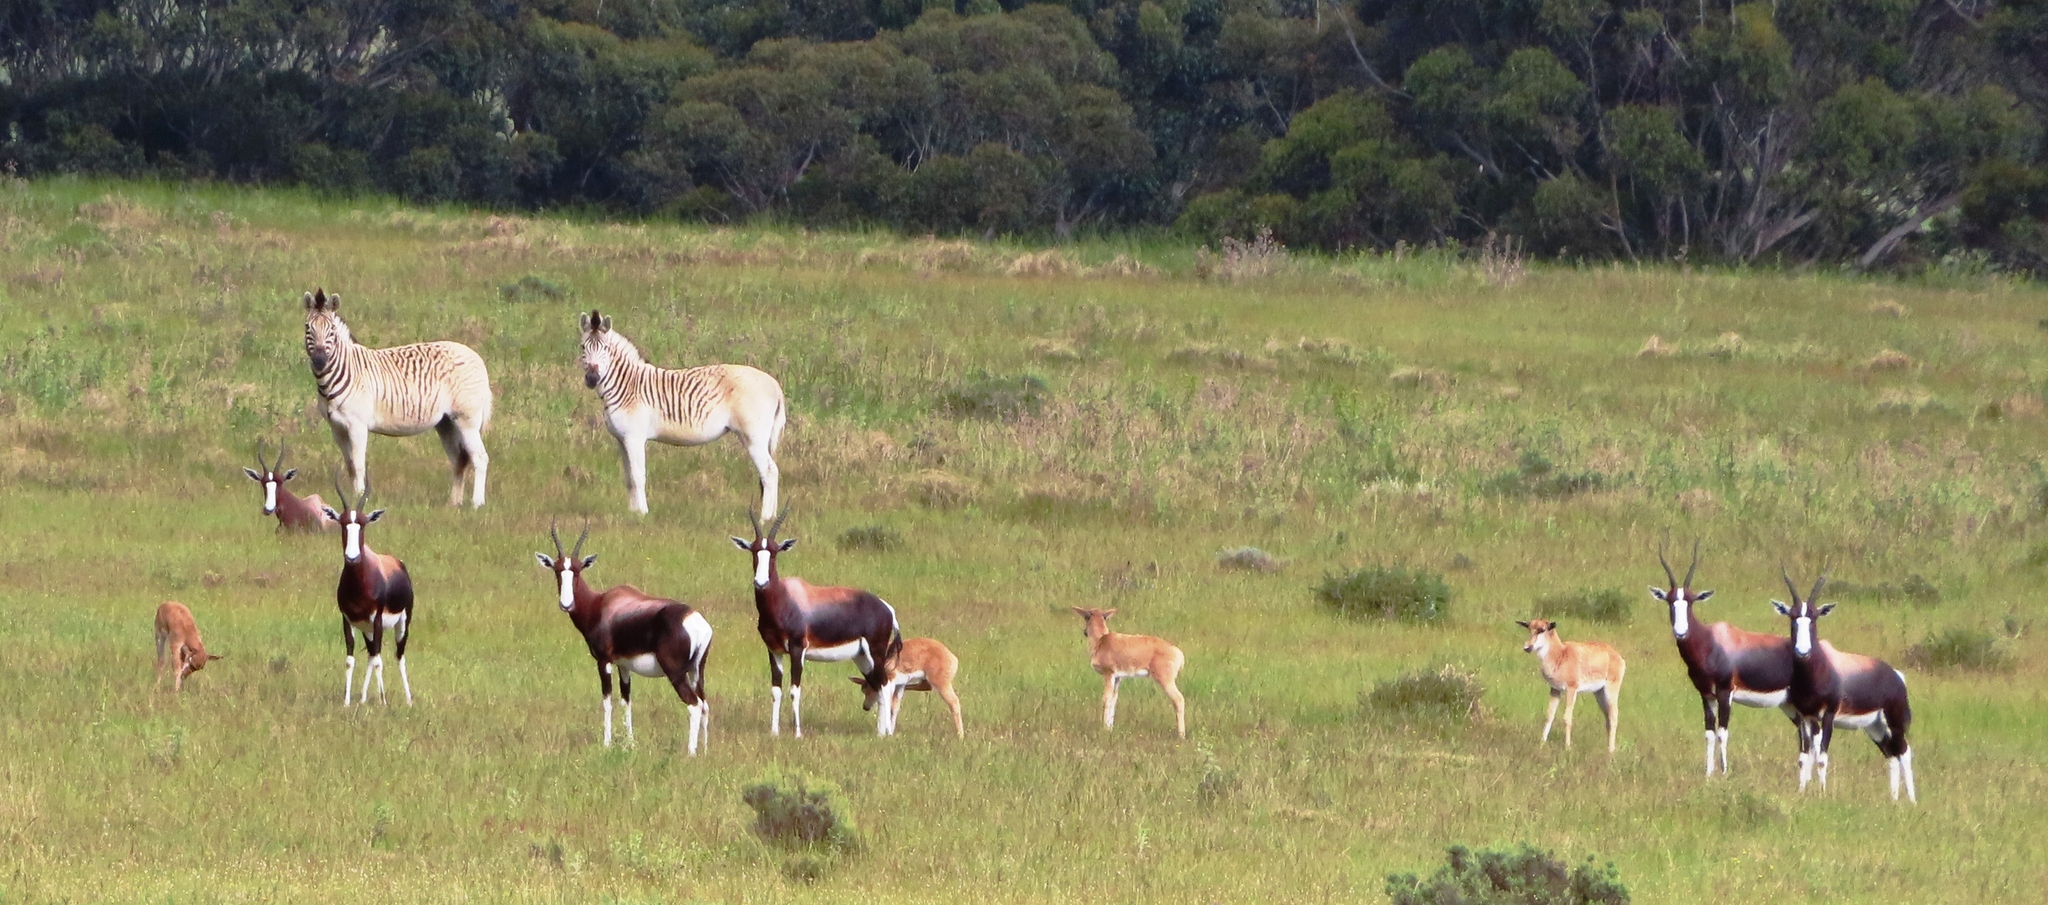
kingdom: Animalia
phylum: Chordata
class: Mammalia
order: Artiodactyla
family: Bovidae
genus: Damaliscus
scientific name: Damaliscus pygargus
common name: Bontebok
